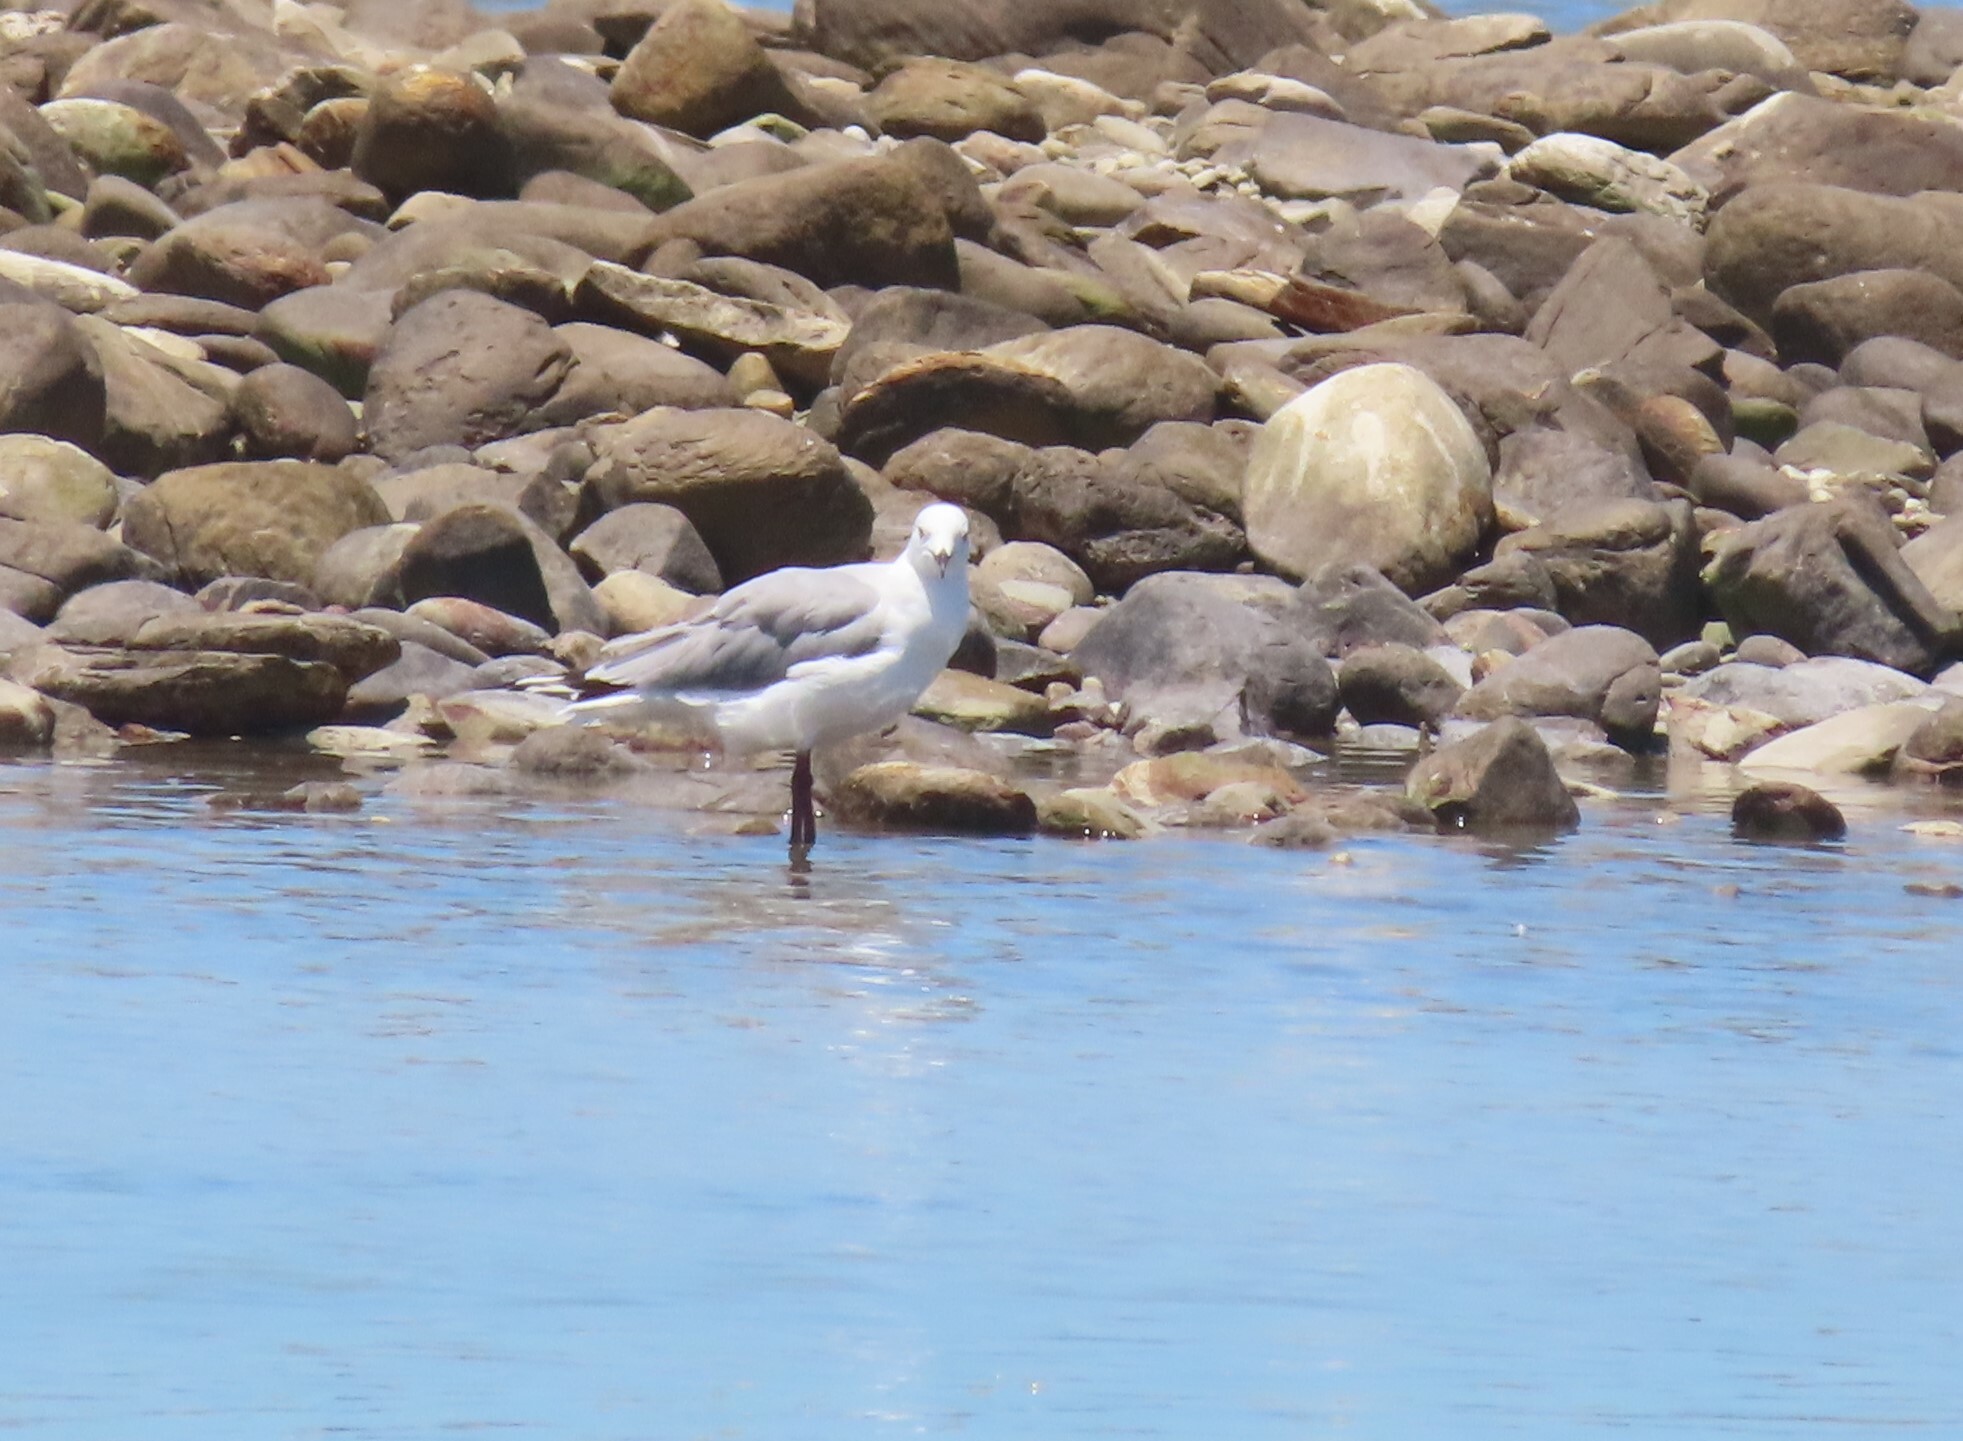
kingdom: Animalia
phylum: Chordata
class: Aves
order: Charadriiformes
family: Laridae
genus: Chroicocephalus
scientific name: Chroicocephalus hartlaubii
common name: Hartlaub's gull
